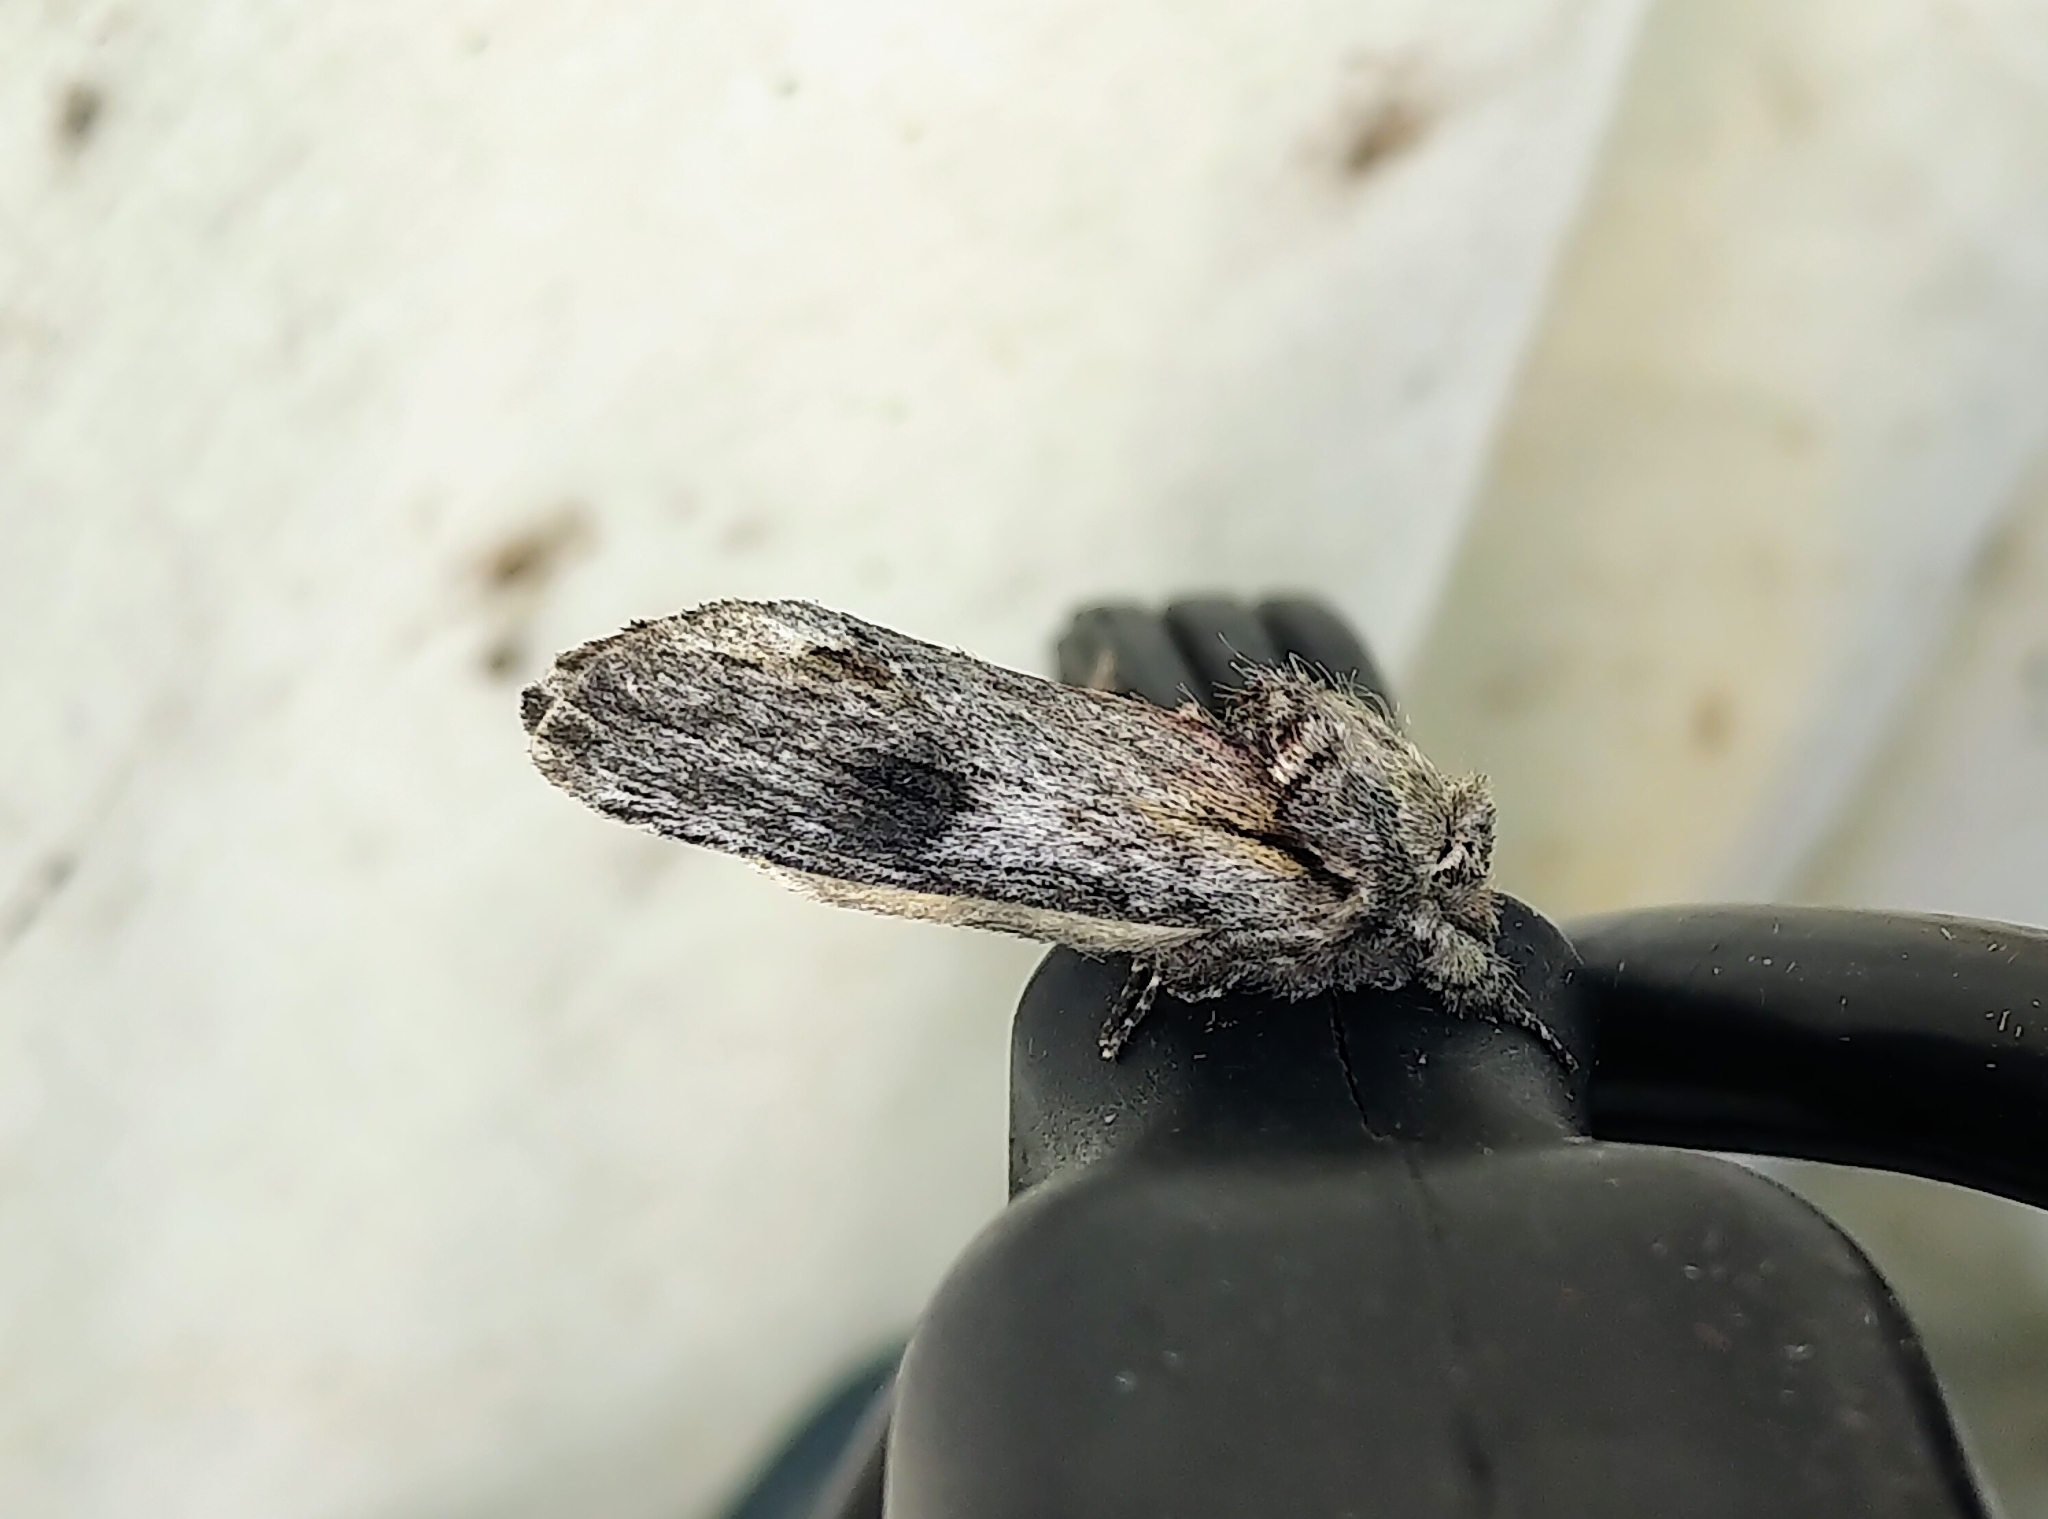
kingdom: Animalia
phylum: Arthropoda
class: Insecta
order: Lepidoptera
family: Notodontidae
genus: Schizura
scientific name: Schizura
